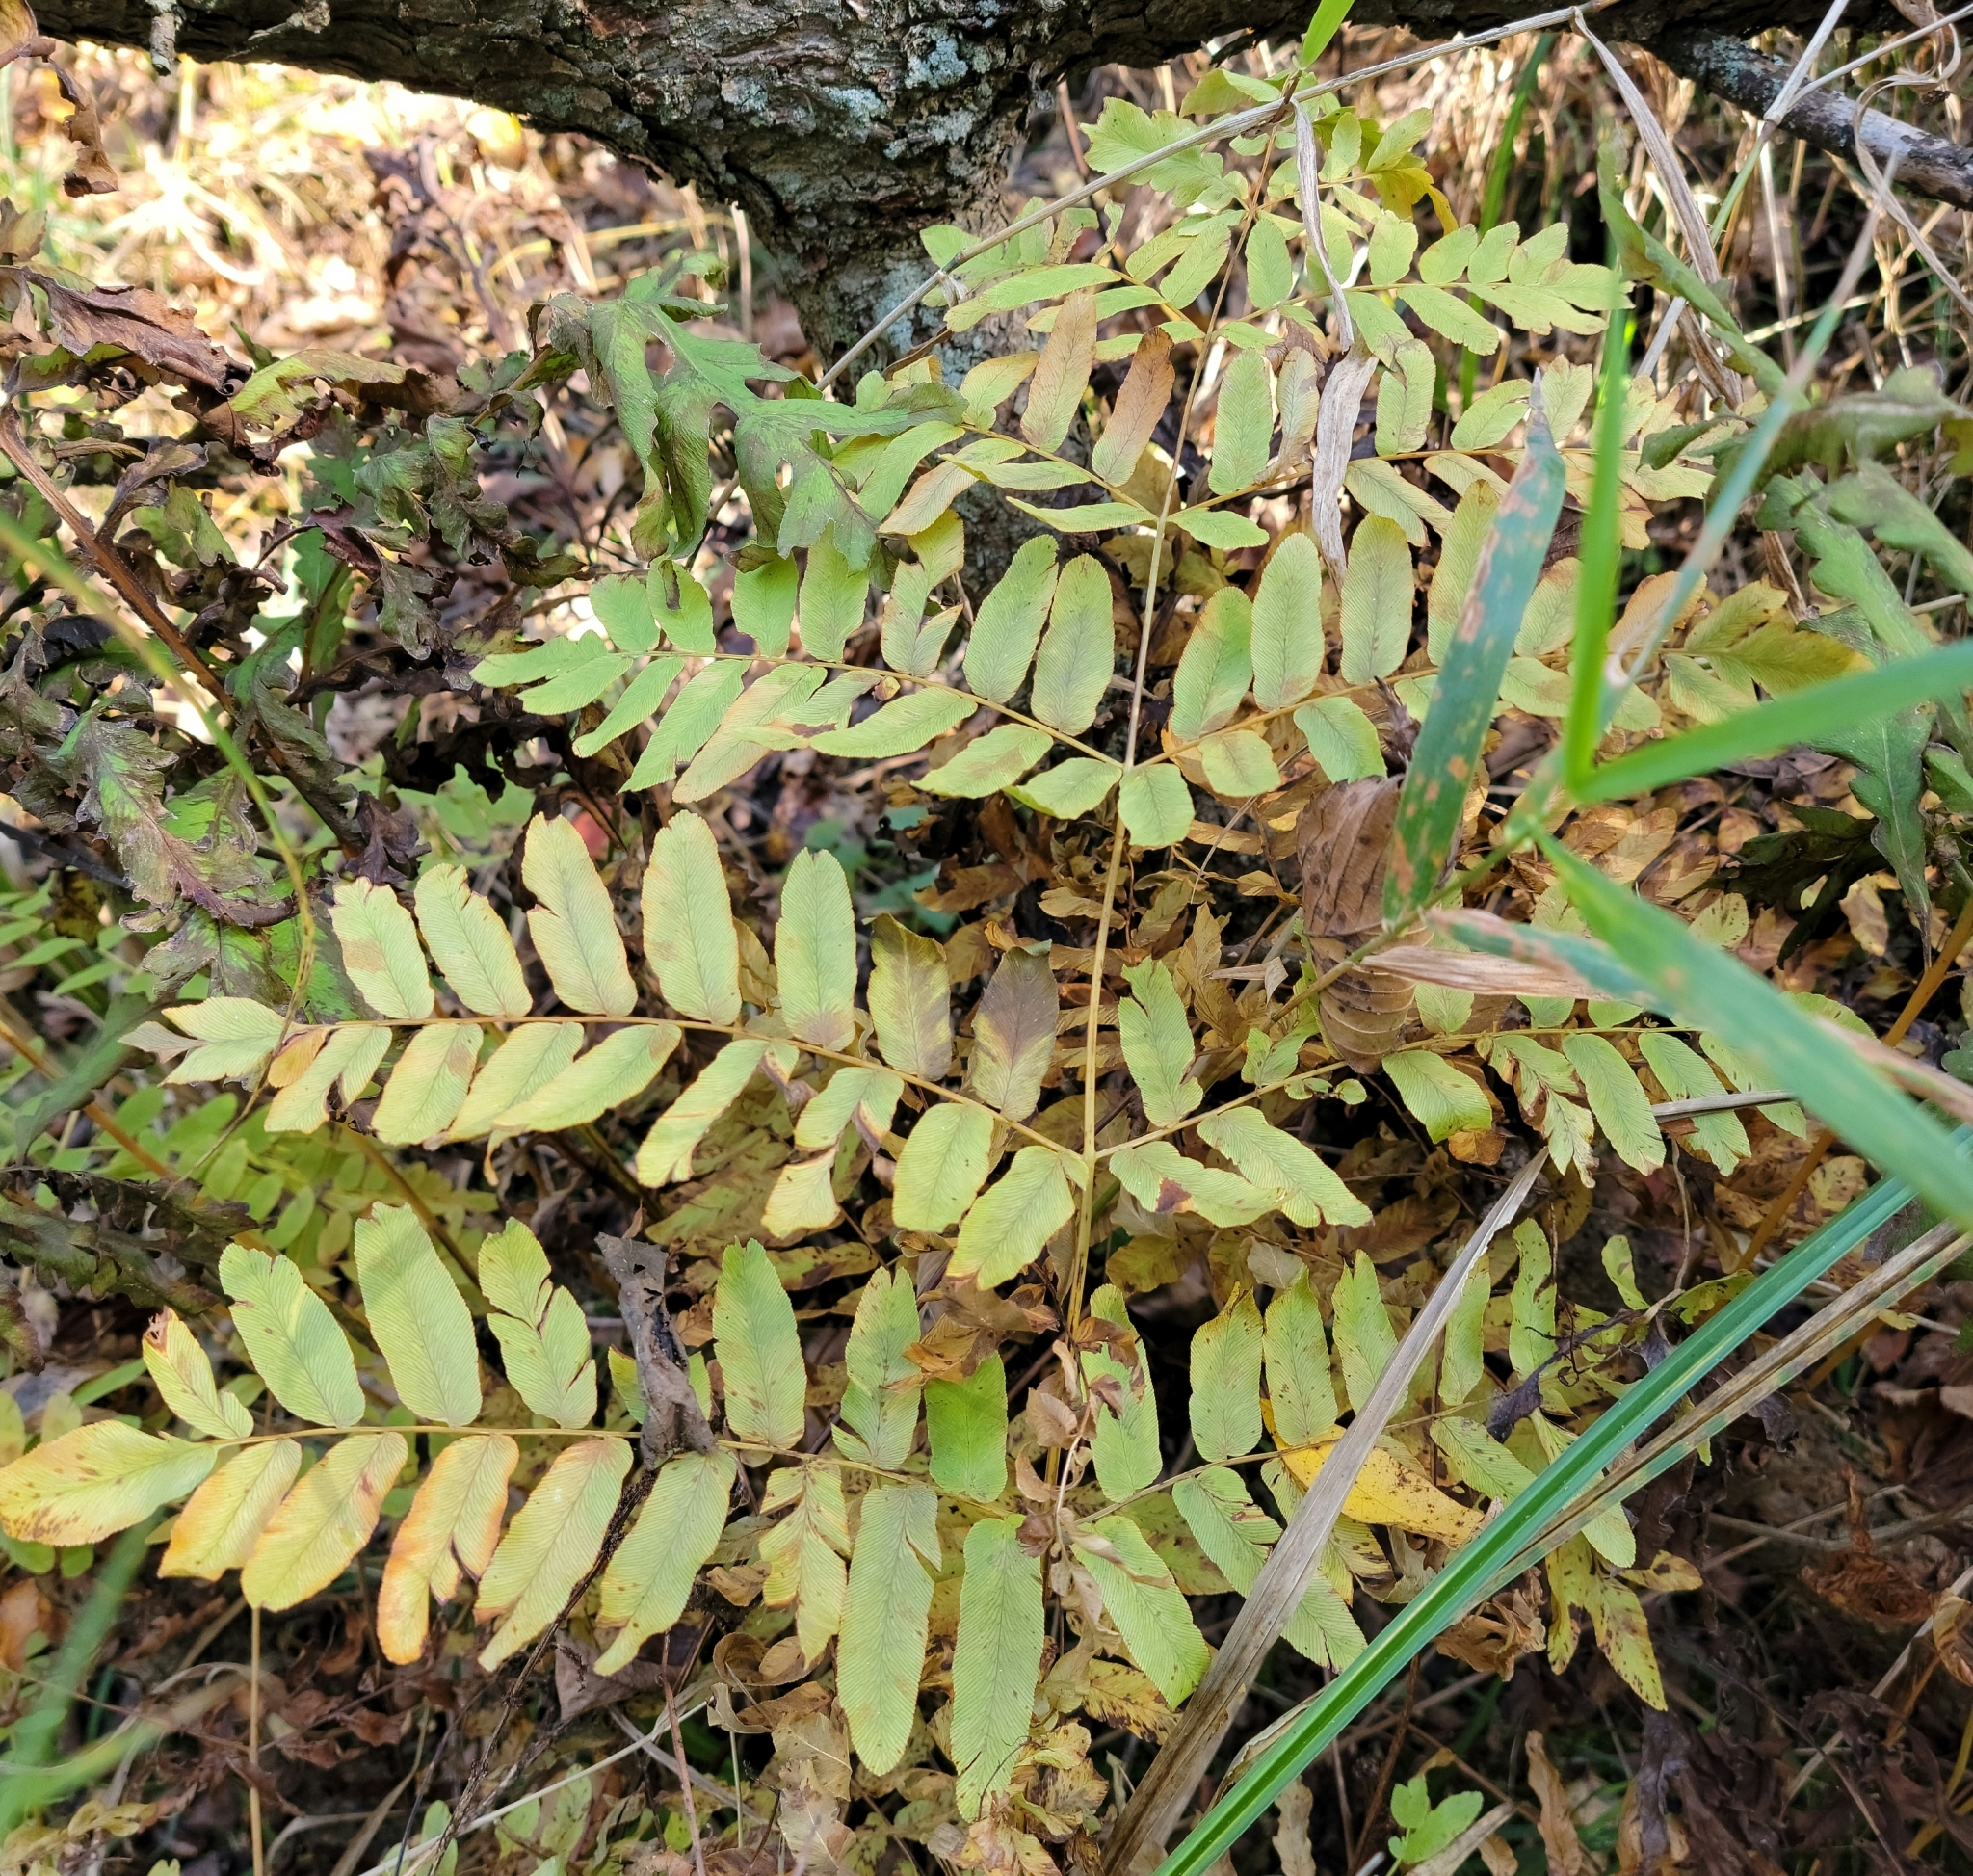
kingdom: Plantae
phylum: Tracheophyta
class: Polypodiopsida
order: Osmundales
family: Osmundaceae
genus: Osmunda
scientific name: Osmunda spectabilis
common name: American royal fern
